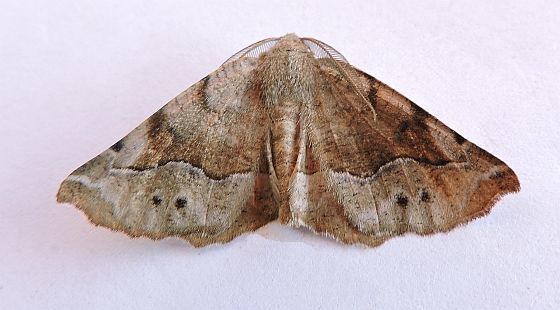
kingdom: Animalia
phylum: Arthropoda
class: Insecta
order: Lepidoptera
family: Geometridae
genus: Caripeta
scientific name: Caripeta hilumaria
